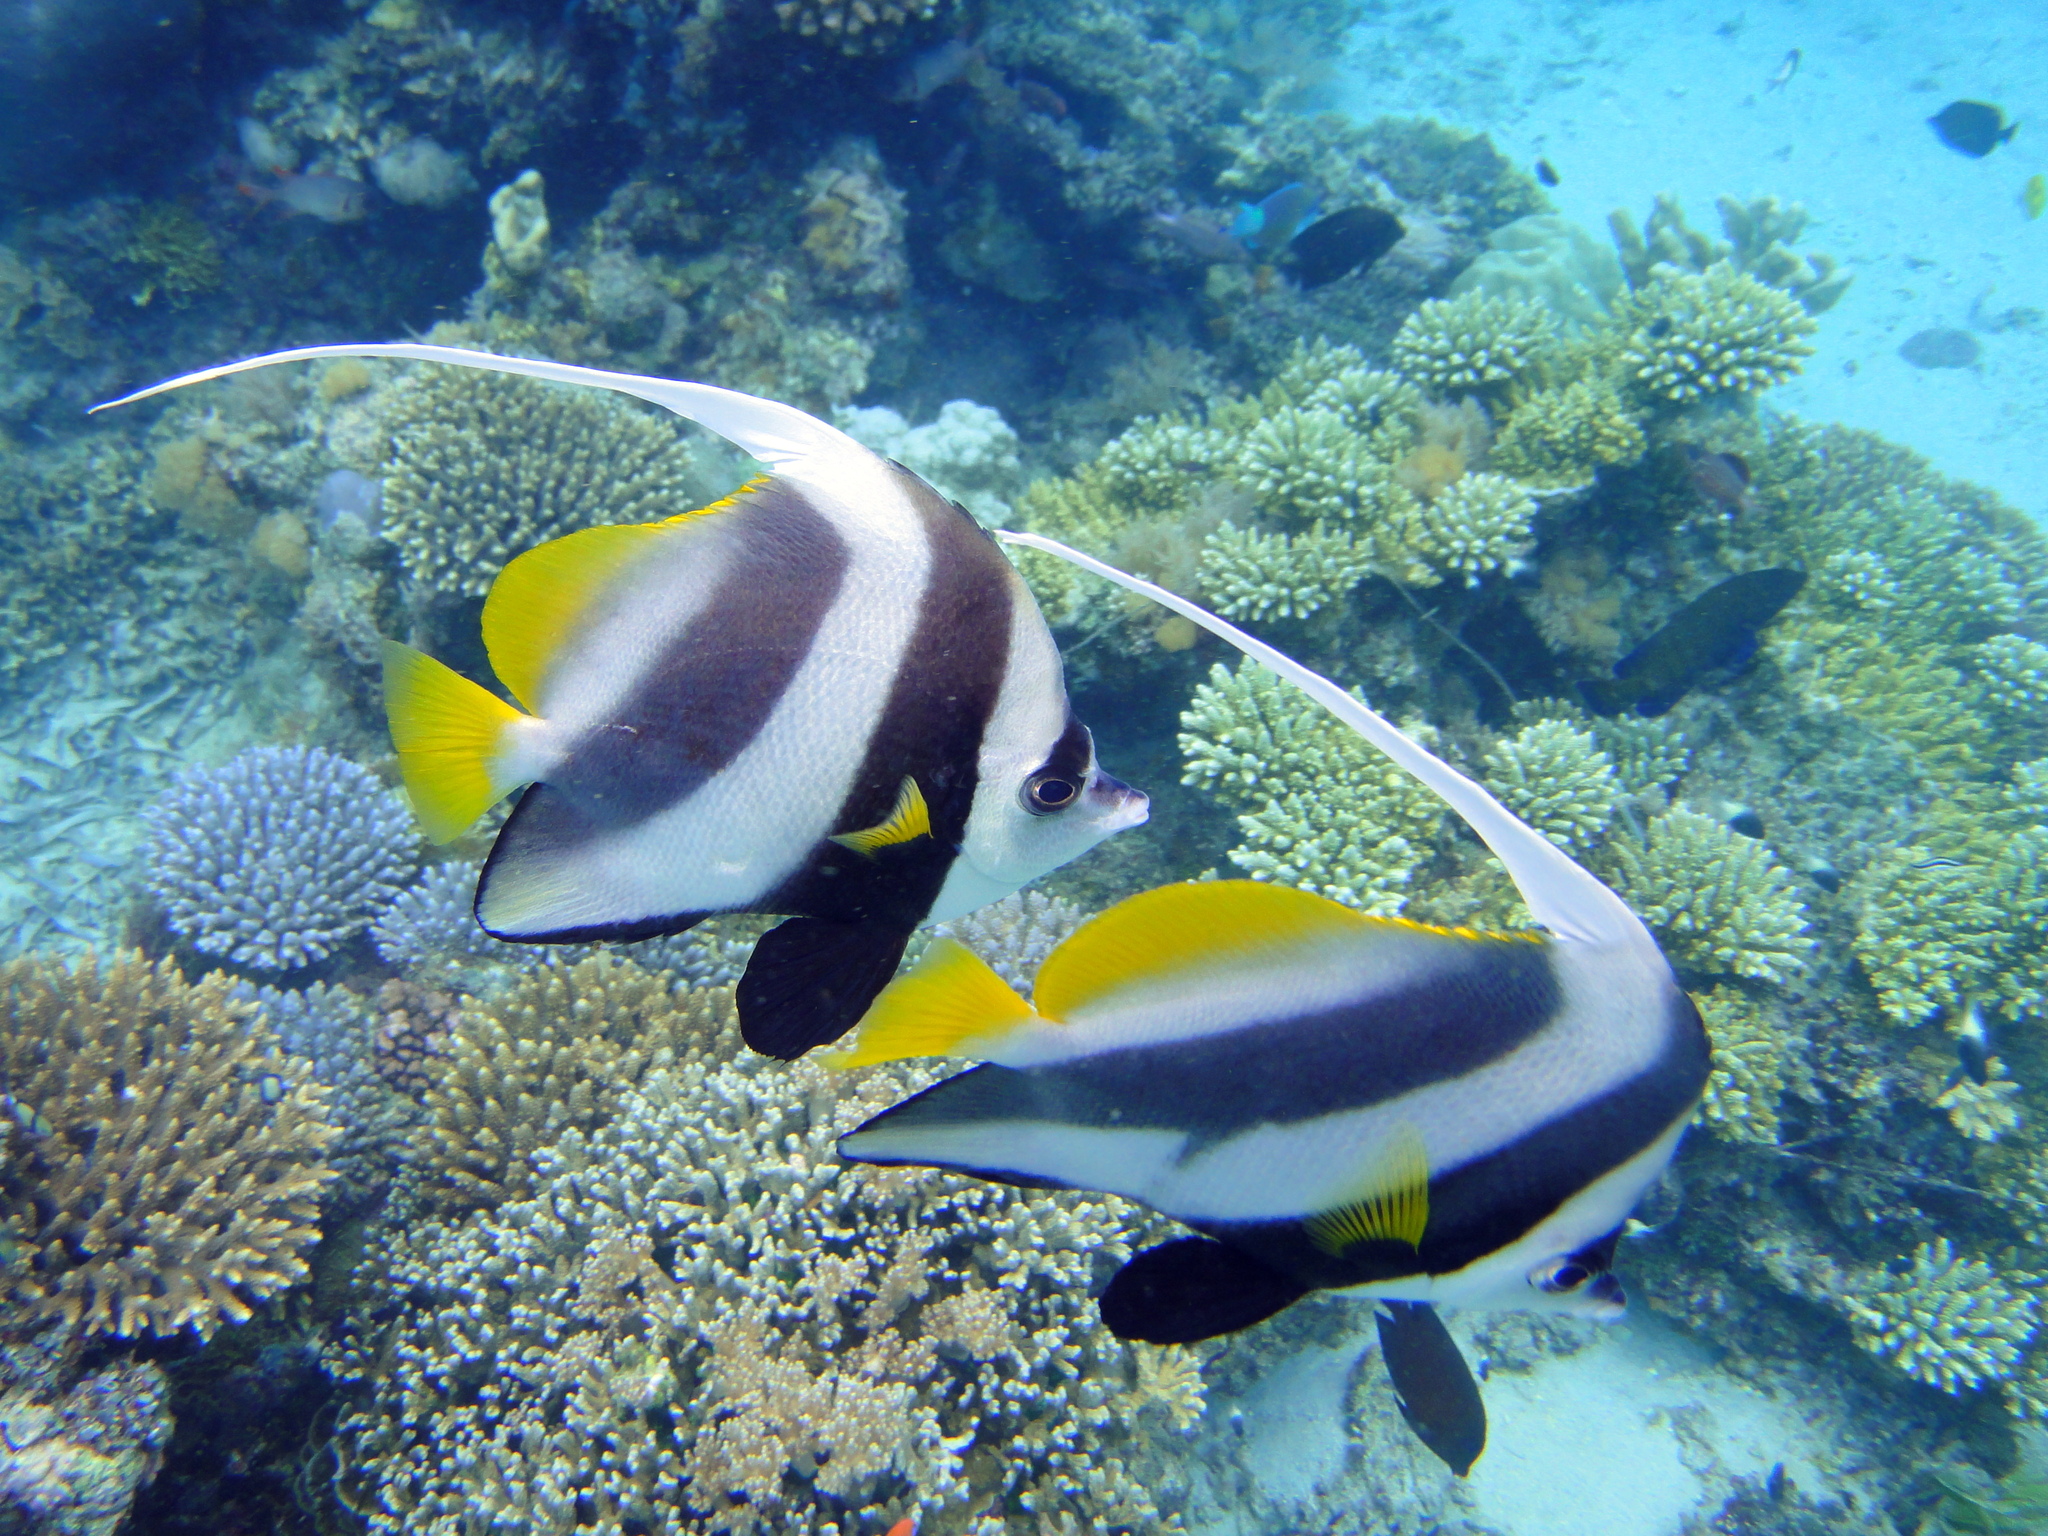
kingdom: Animalia
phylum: Chordata
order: Perciformes
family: Chaetodontidae
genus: Heniochus
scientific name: Heniochus acuminatus
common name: Pennant coralfish
